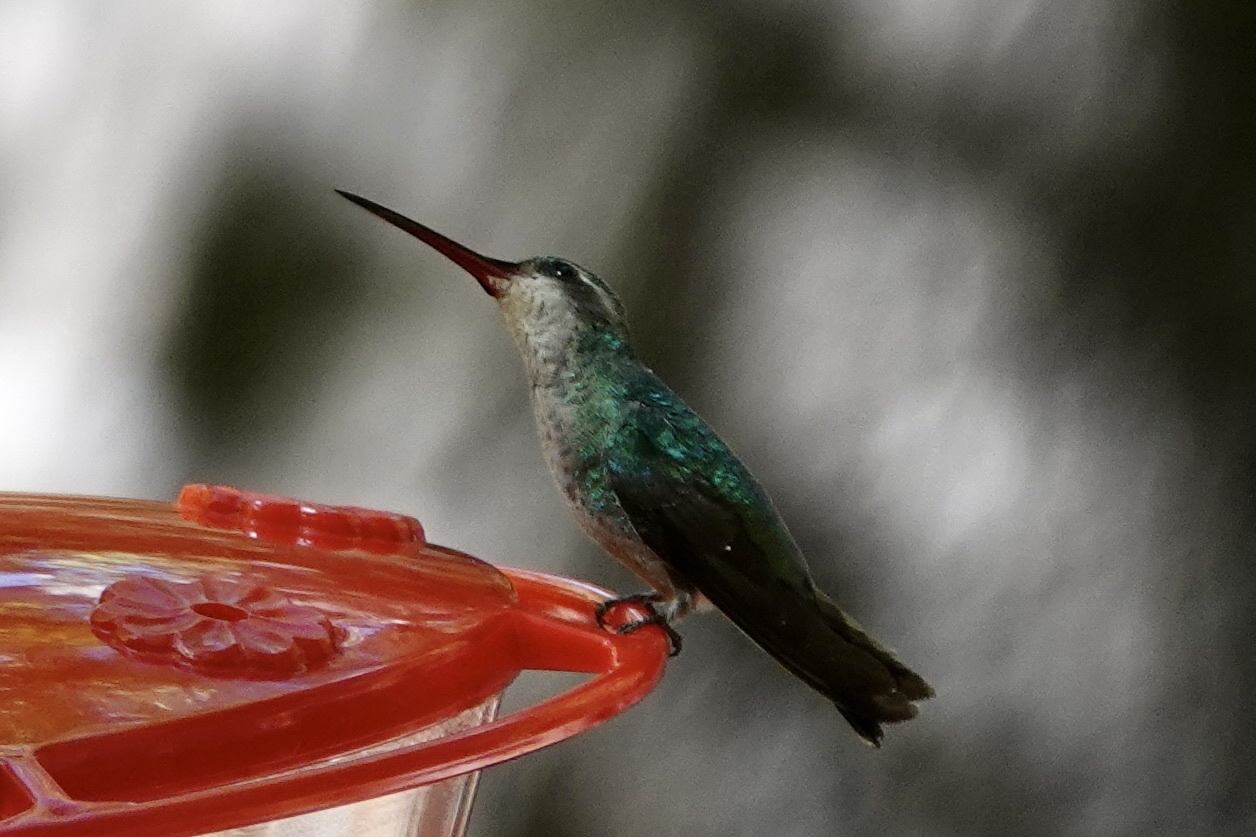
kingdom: Animalia
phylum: Chordata
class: Aves
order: Apodiformes
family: Trochilidae
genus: Cynanthus
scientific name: Cynanthus latirostris
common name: Broad-billed hummingbird
